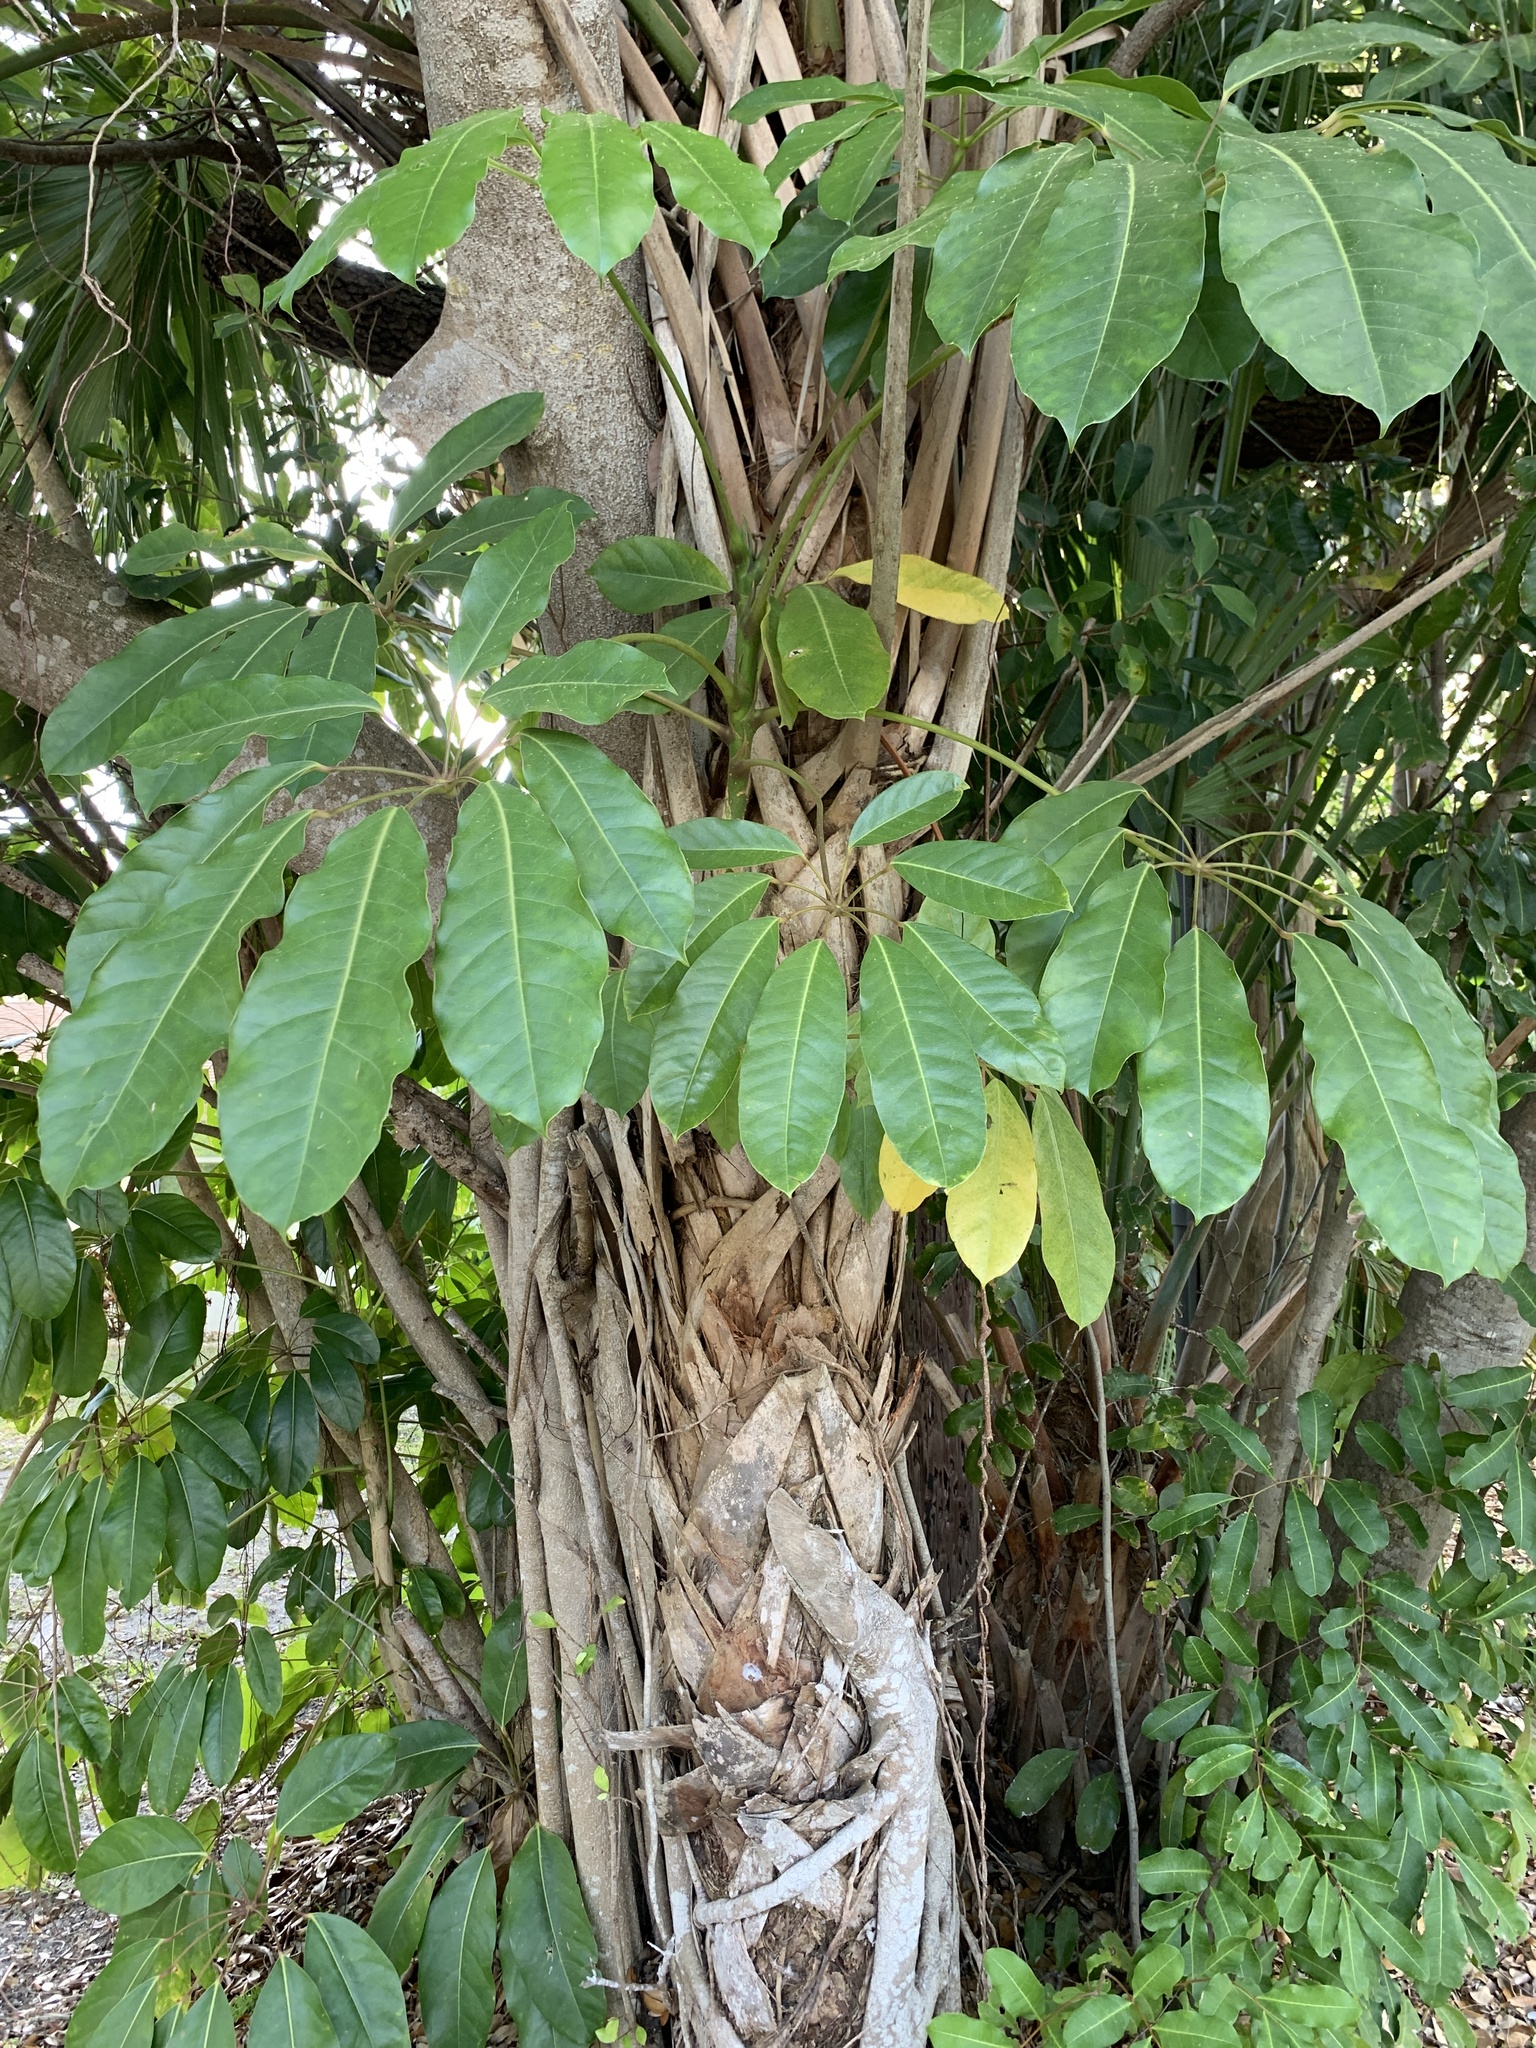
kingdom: Plantae
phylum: Tracheophyta
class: Magnoliopsida
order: Apiales
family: Araliaceae
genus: Heptapleurum
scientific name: Heptapleurum actinophyllum
